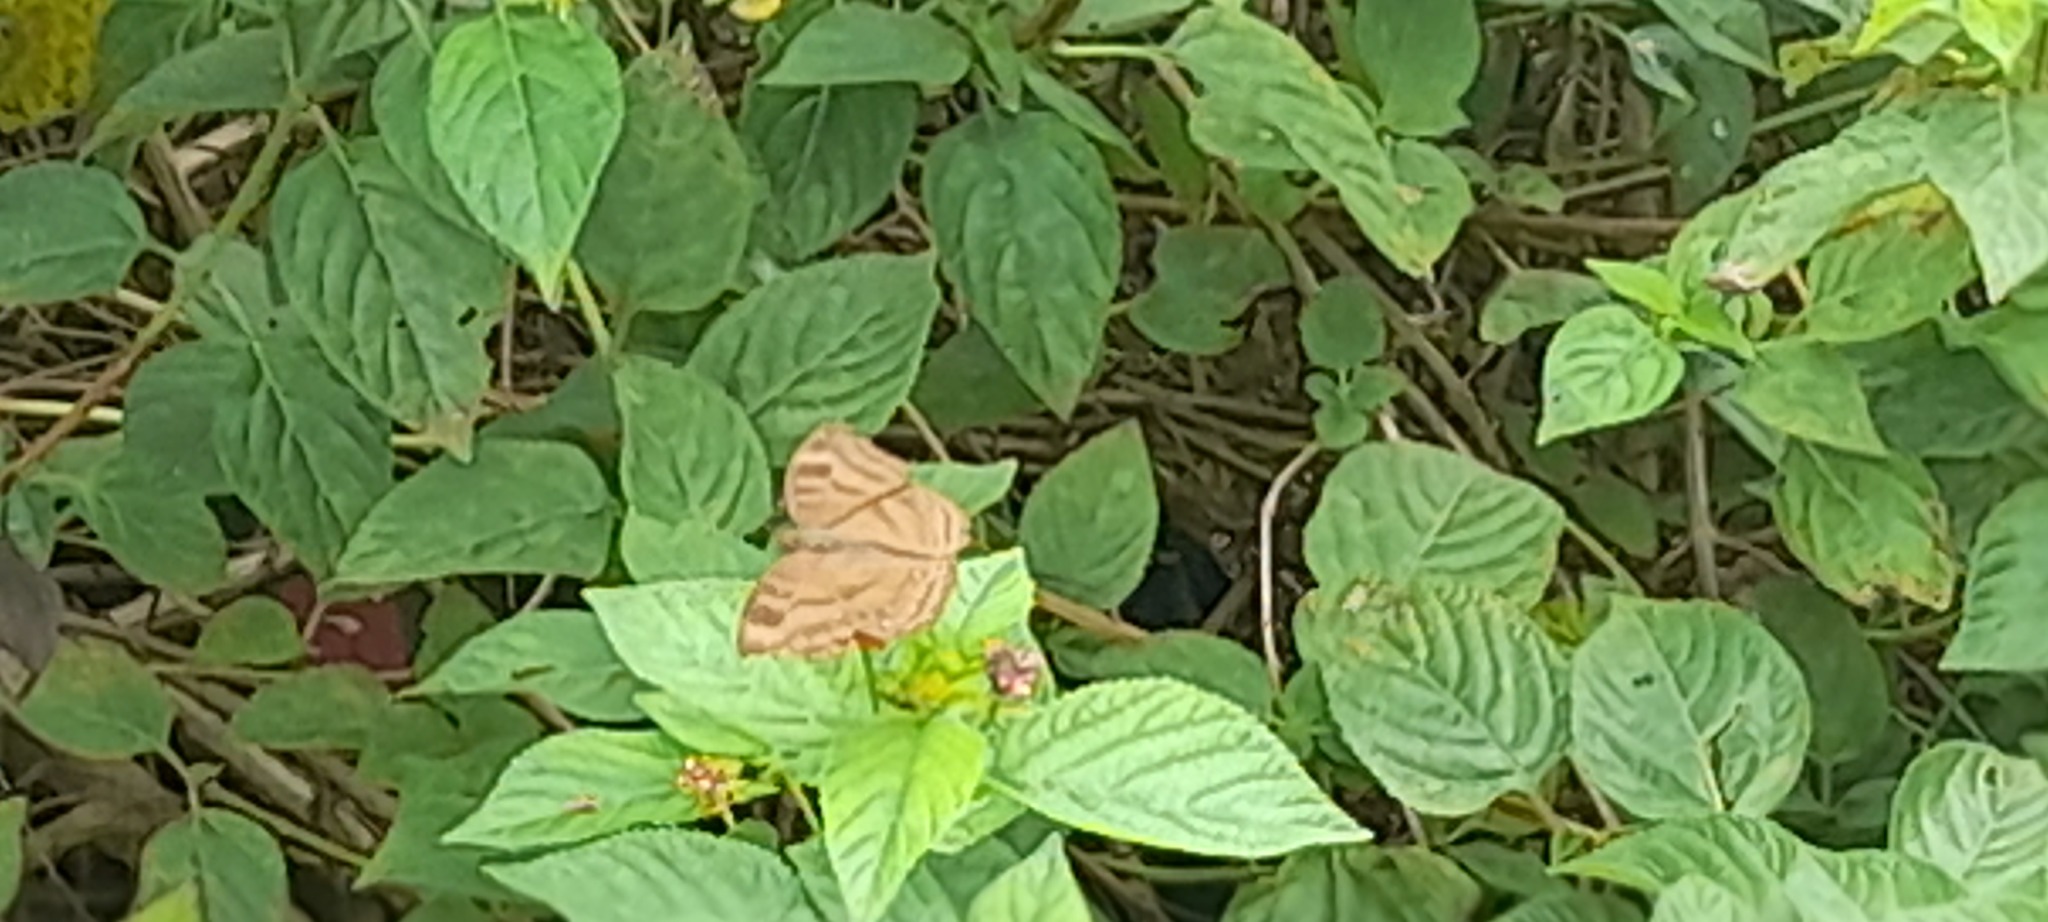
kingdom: Animalia
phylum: Arthropoda
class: Insecta
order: Lepidoptera
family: Nymphalidae
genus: Junonia
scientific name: Junonia iphita
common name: Chocolate pansy
